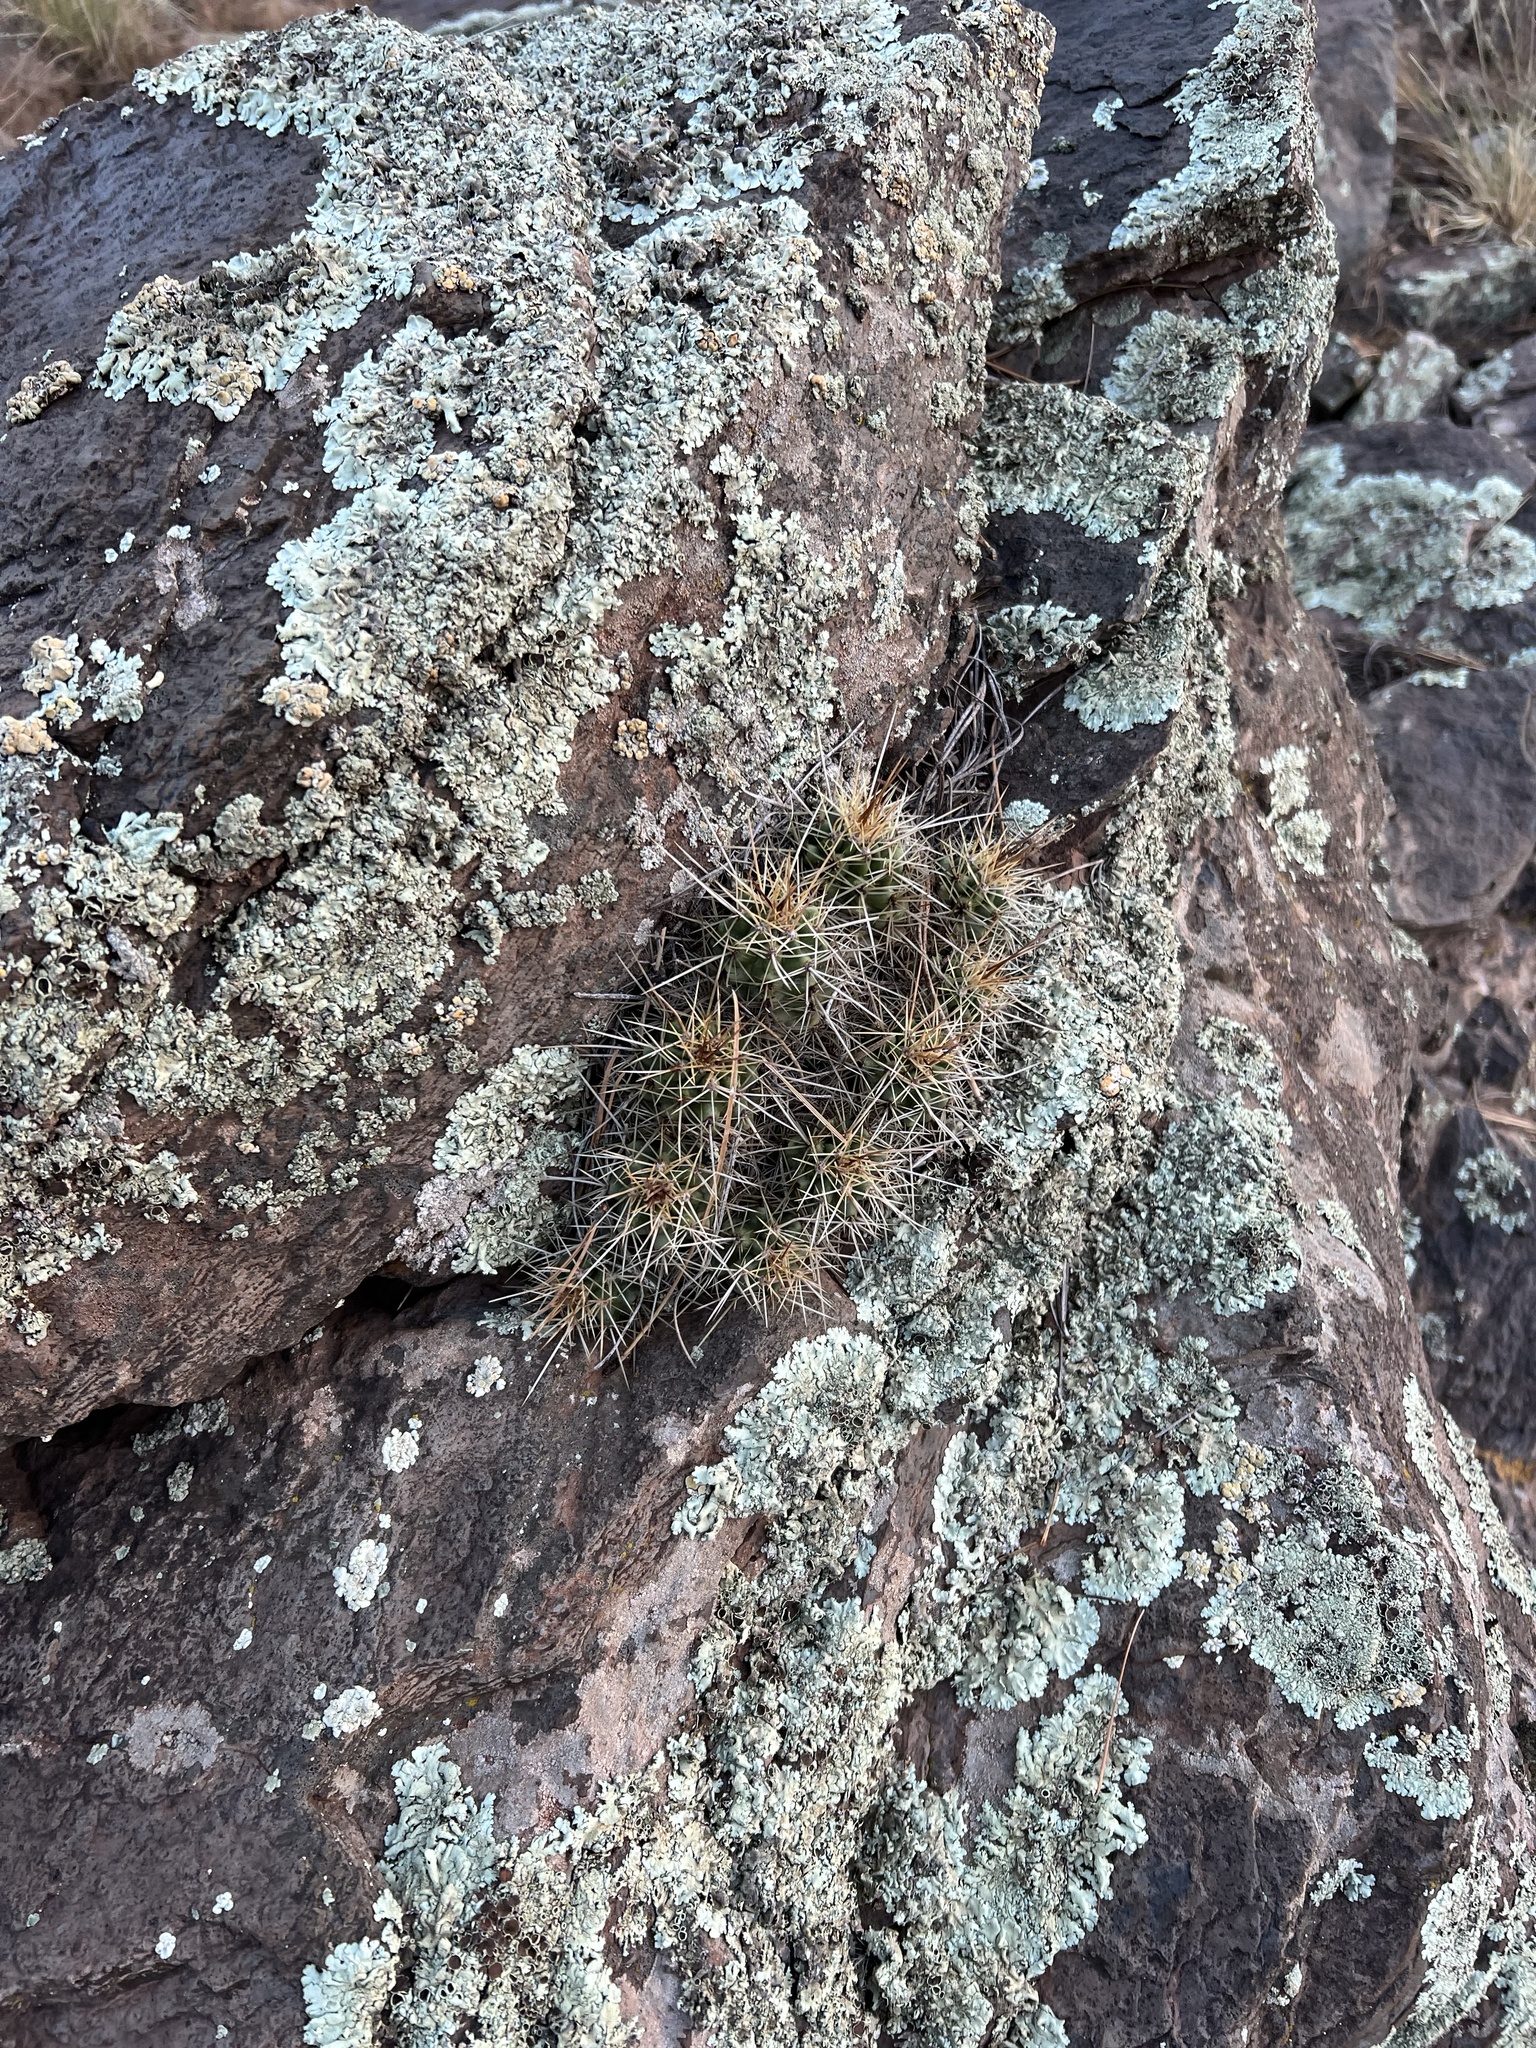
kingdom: Plantae
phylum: Tracheophyta
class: Magnoliopsida
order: Caryophyllales
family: Cactaceae
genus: Echinocereus
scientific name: Echinocereus bakeri
